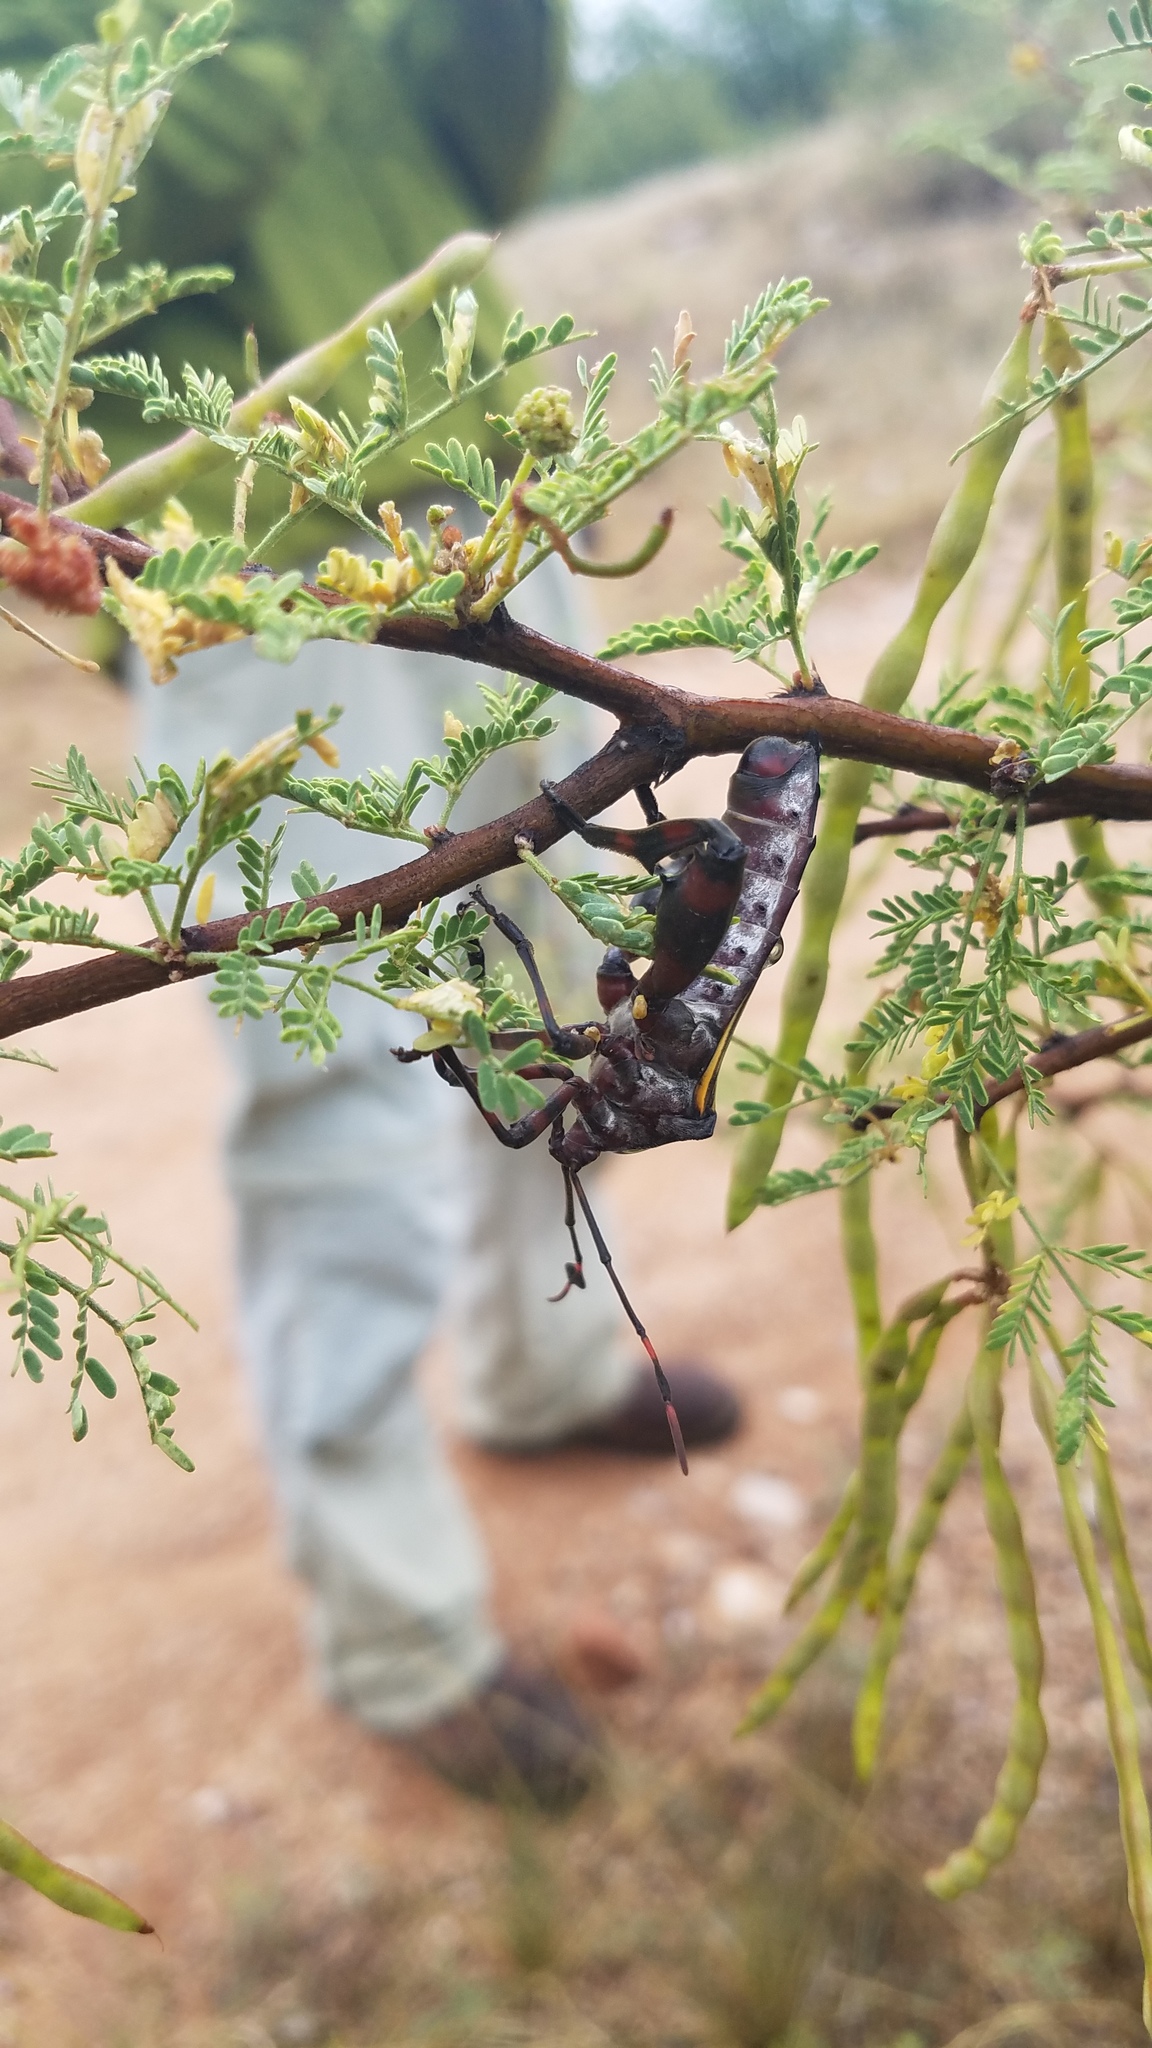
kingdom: Animalia
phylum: Arthropoda
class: Insecta
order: Hemiptera
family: Coreidae
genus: Thasus
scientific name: Thasus neocalifornicus
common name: Giant mesquite bug
